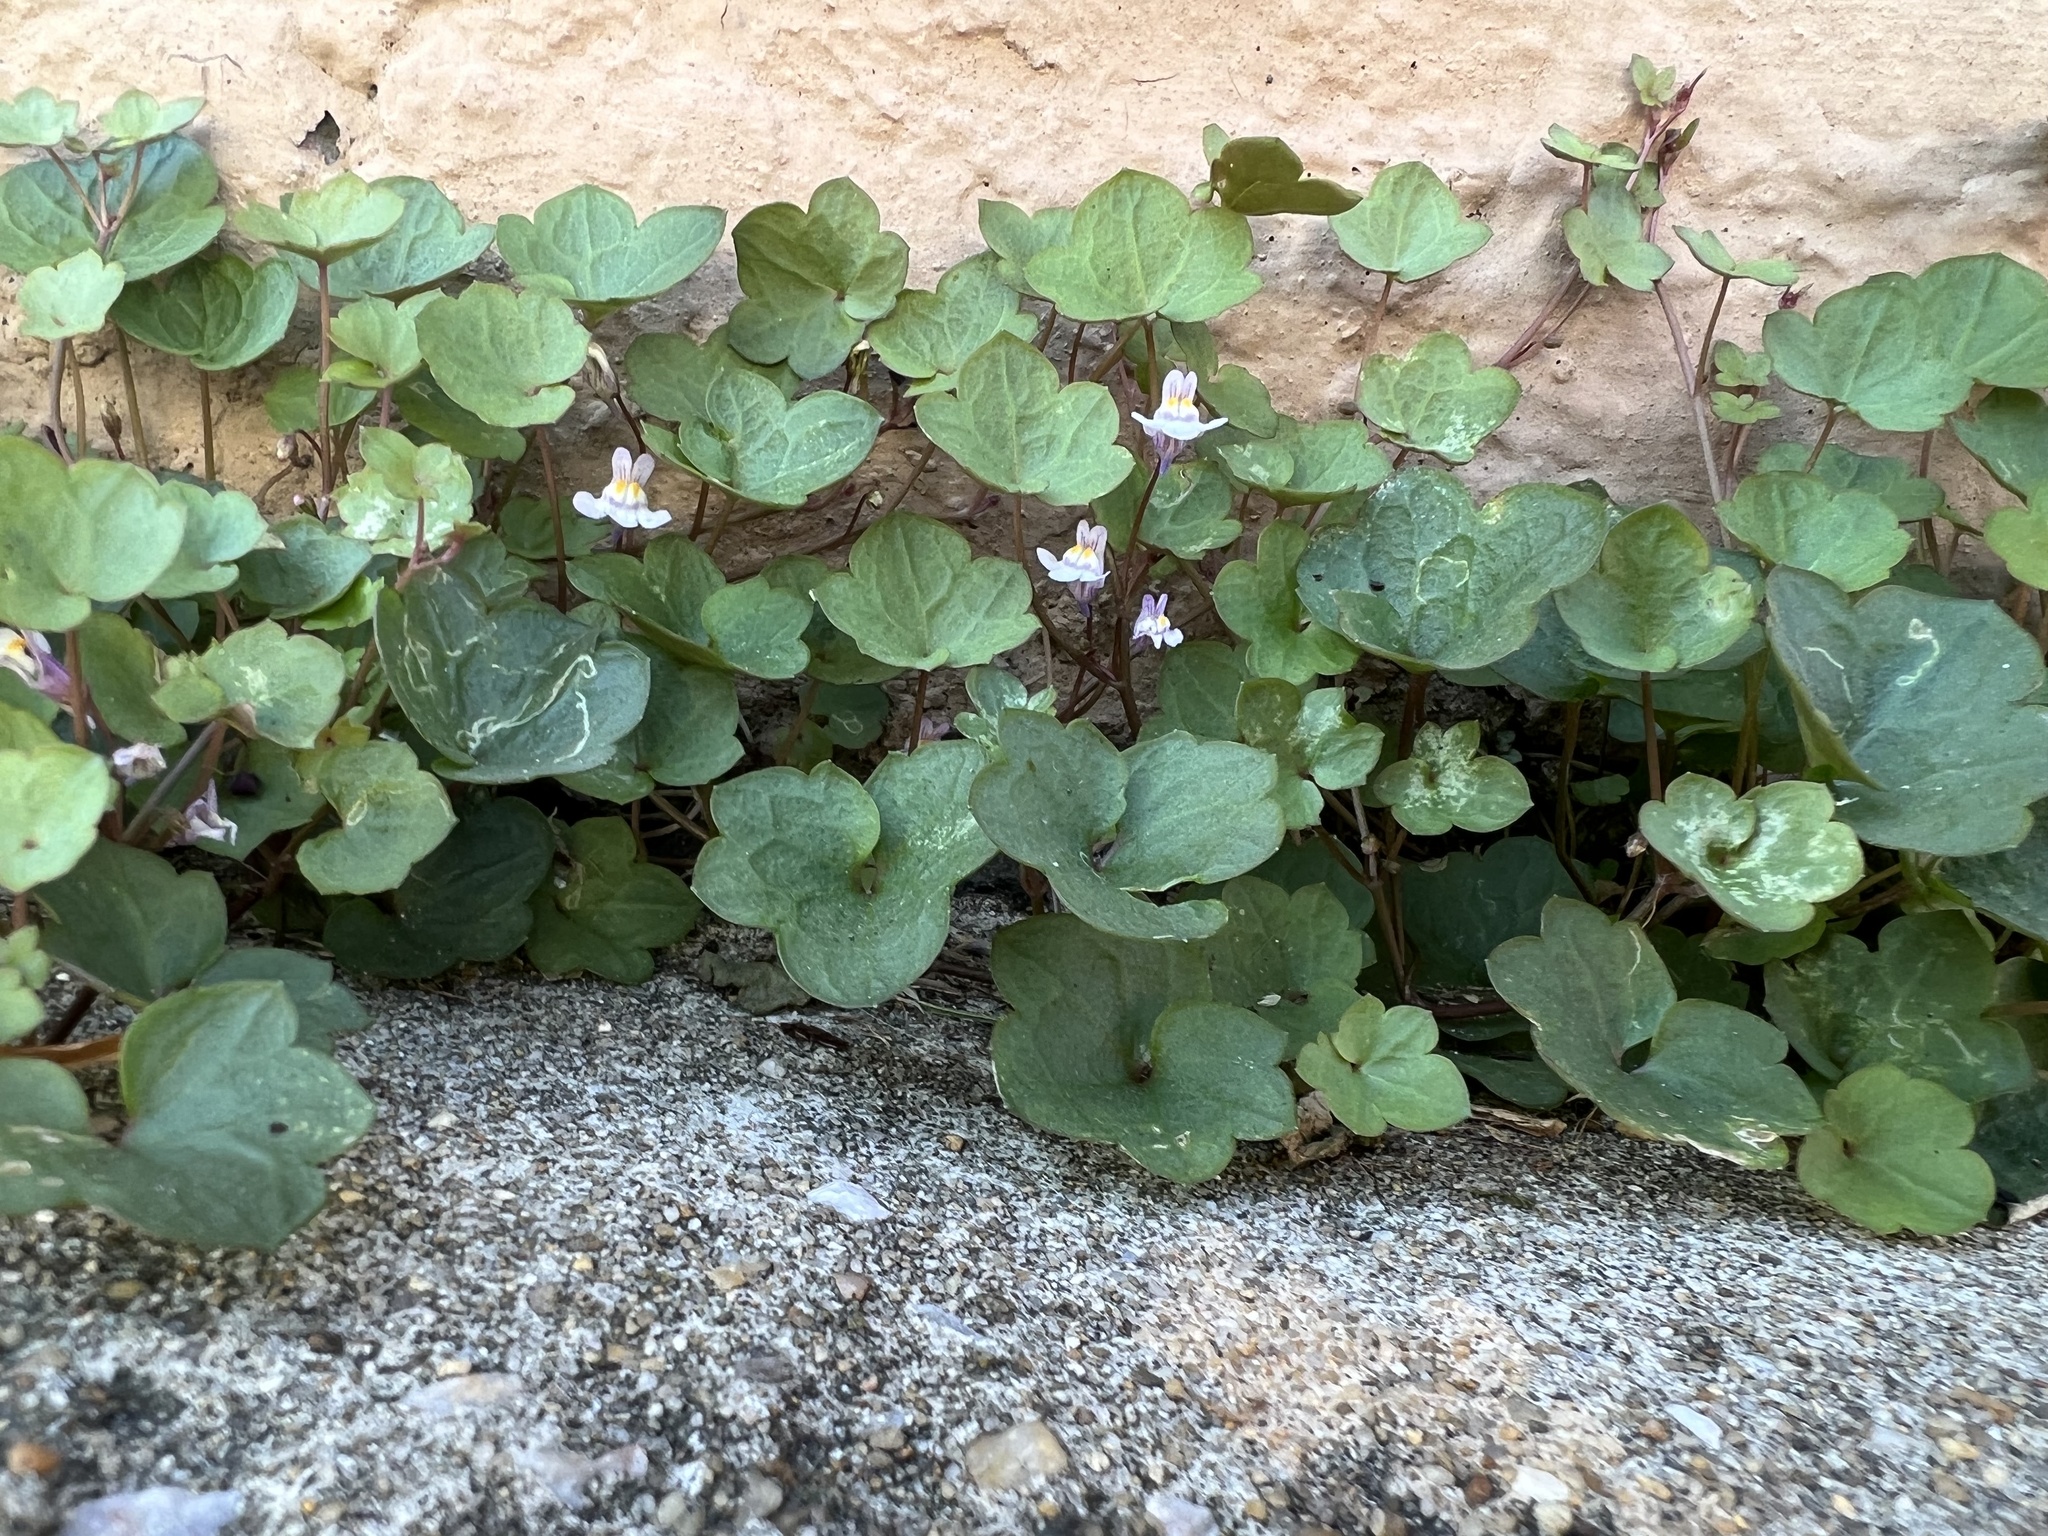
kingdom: Plantae
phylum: Tracheophyta
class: Magnoliopsida
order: Lamiales
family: Plantaginaceae
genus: Cymbalaria
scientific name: Cymbalaria muralis
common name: Ivy-leaved toadflax
